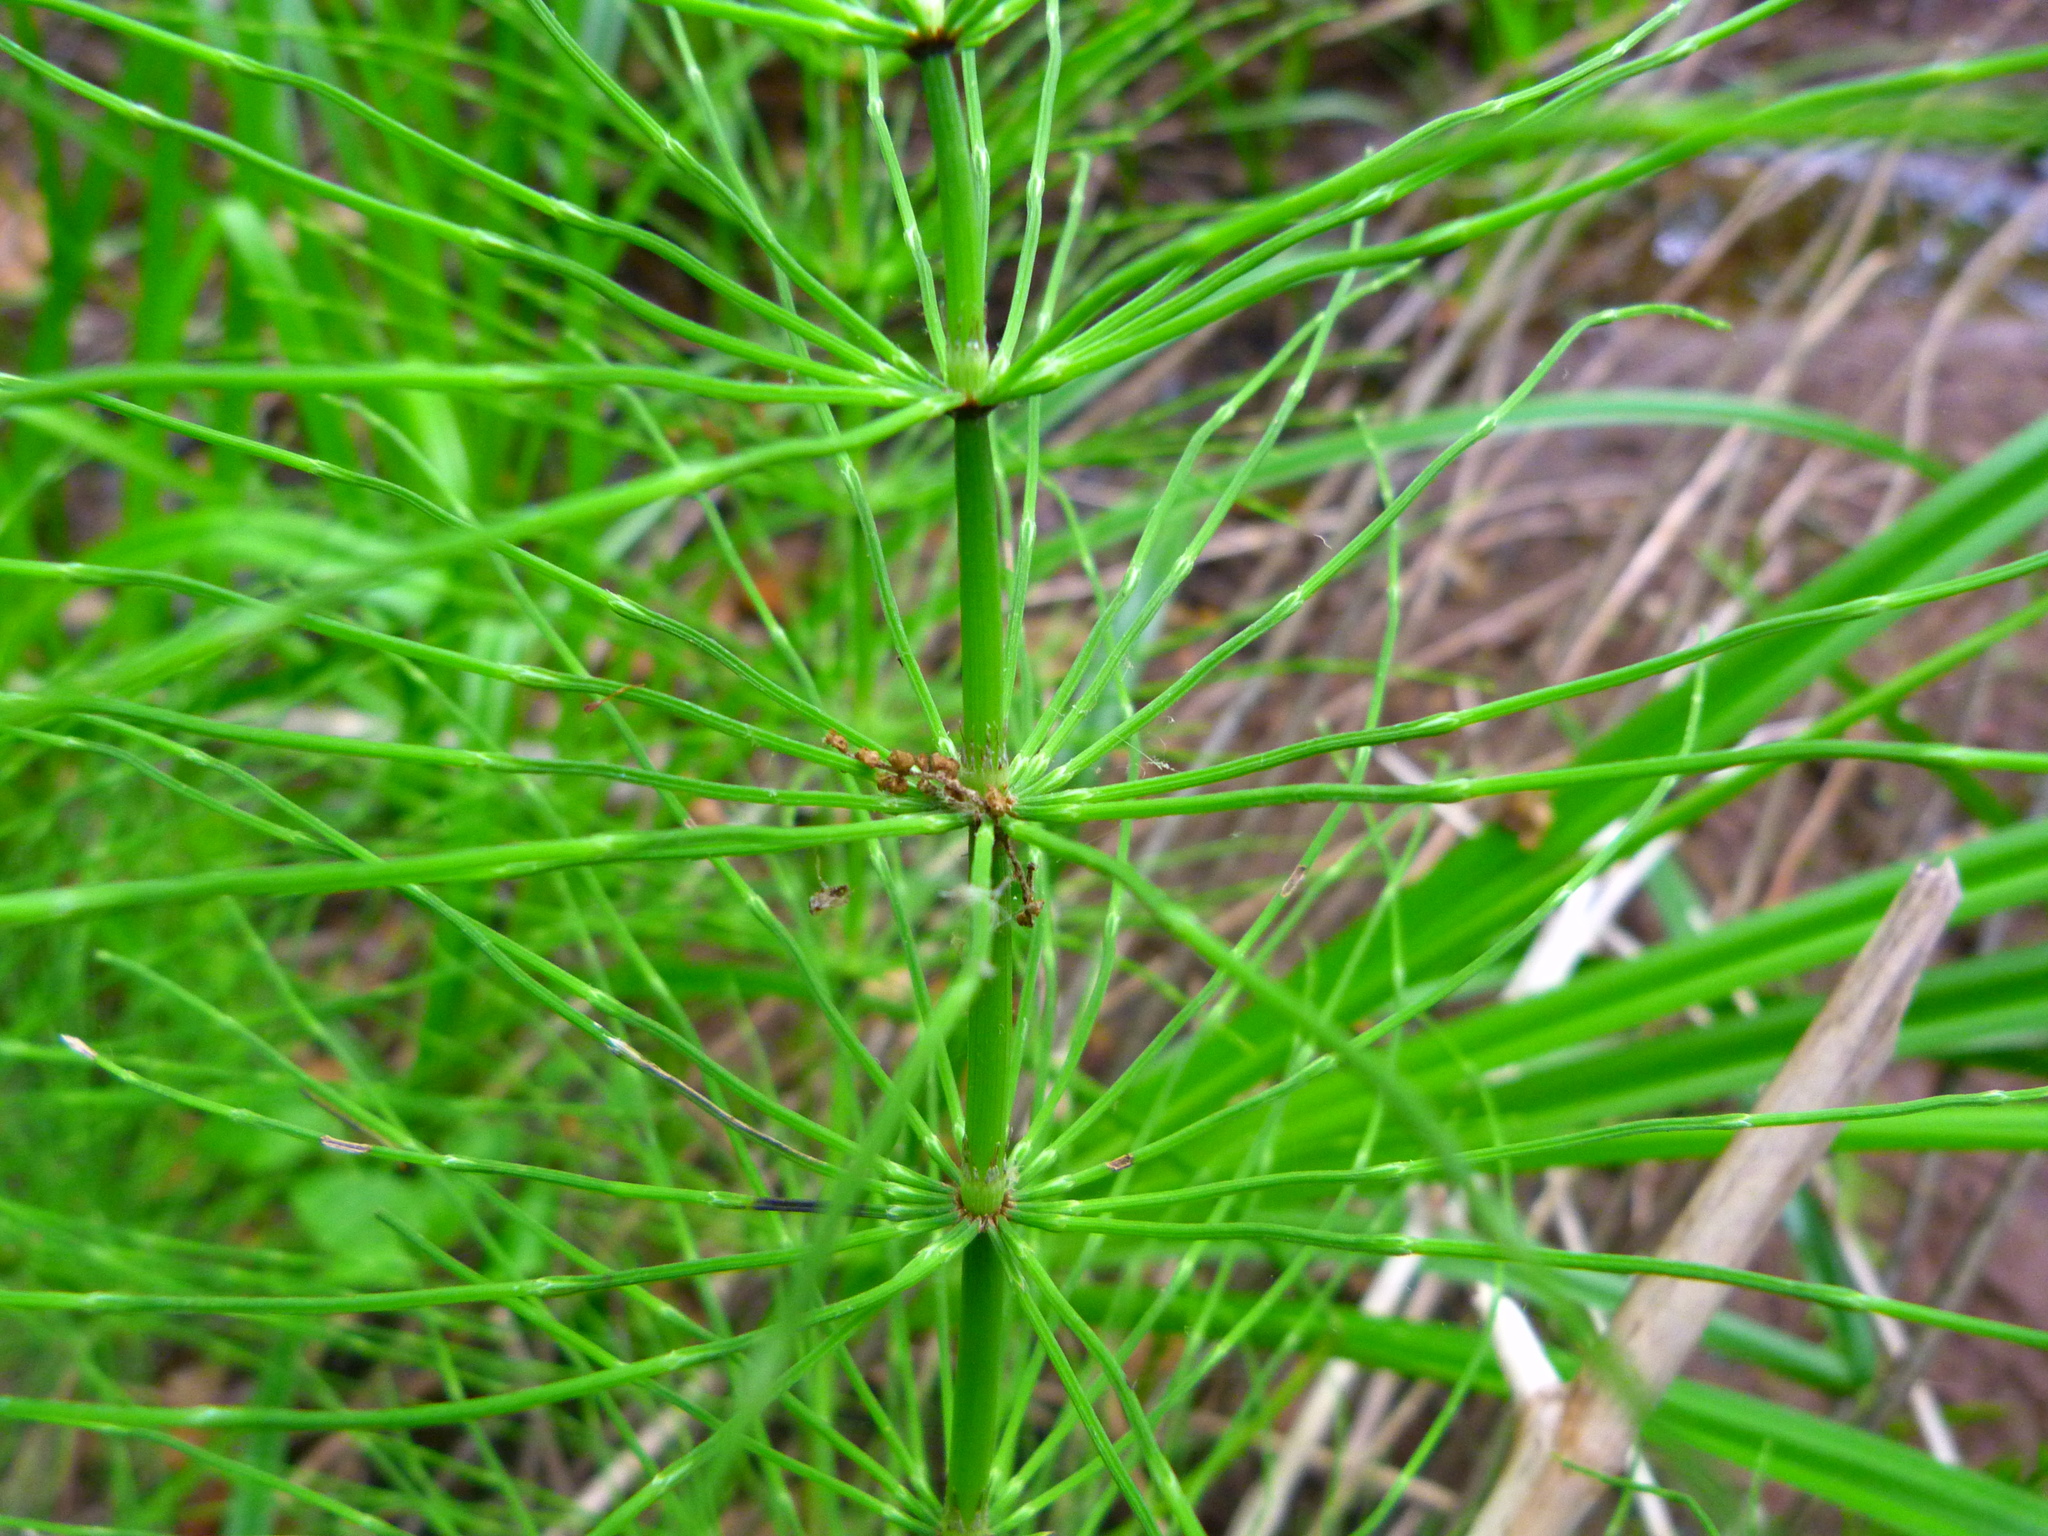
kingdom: Plantae
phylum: Tracheophyta
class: Polypodiopsida
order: Equisetales
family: Equisetaceae
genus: Equisetum
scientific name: Equisetum telmateia
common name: Great horsetail
